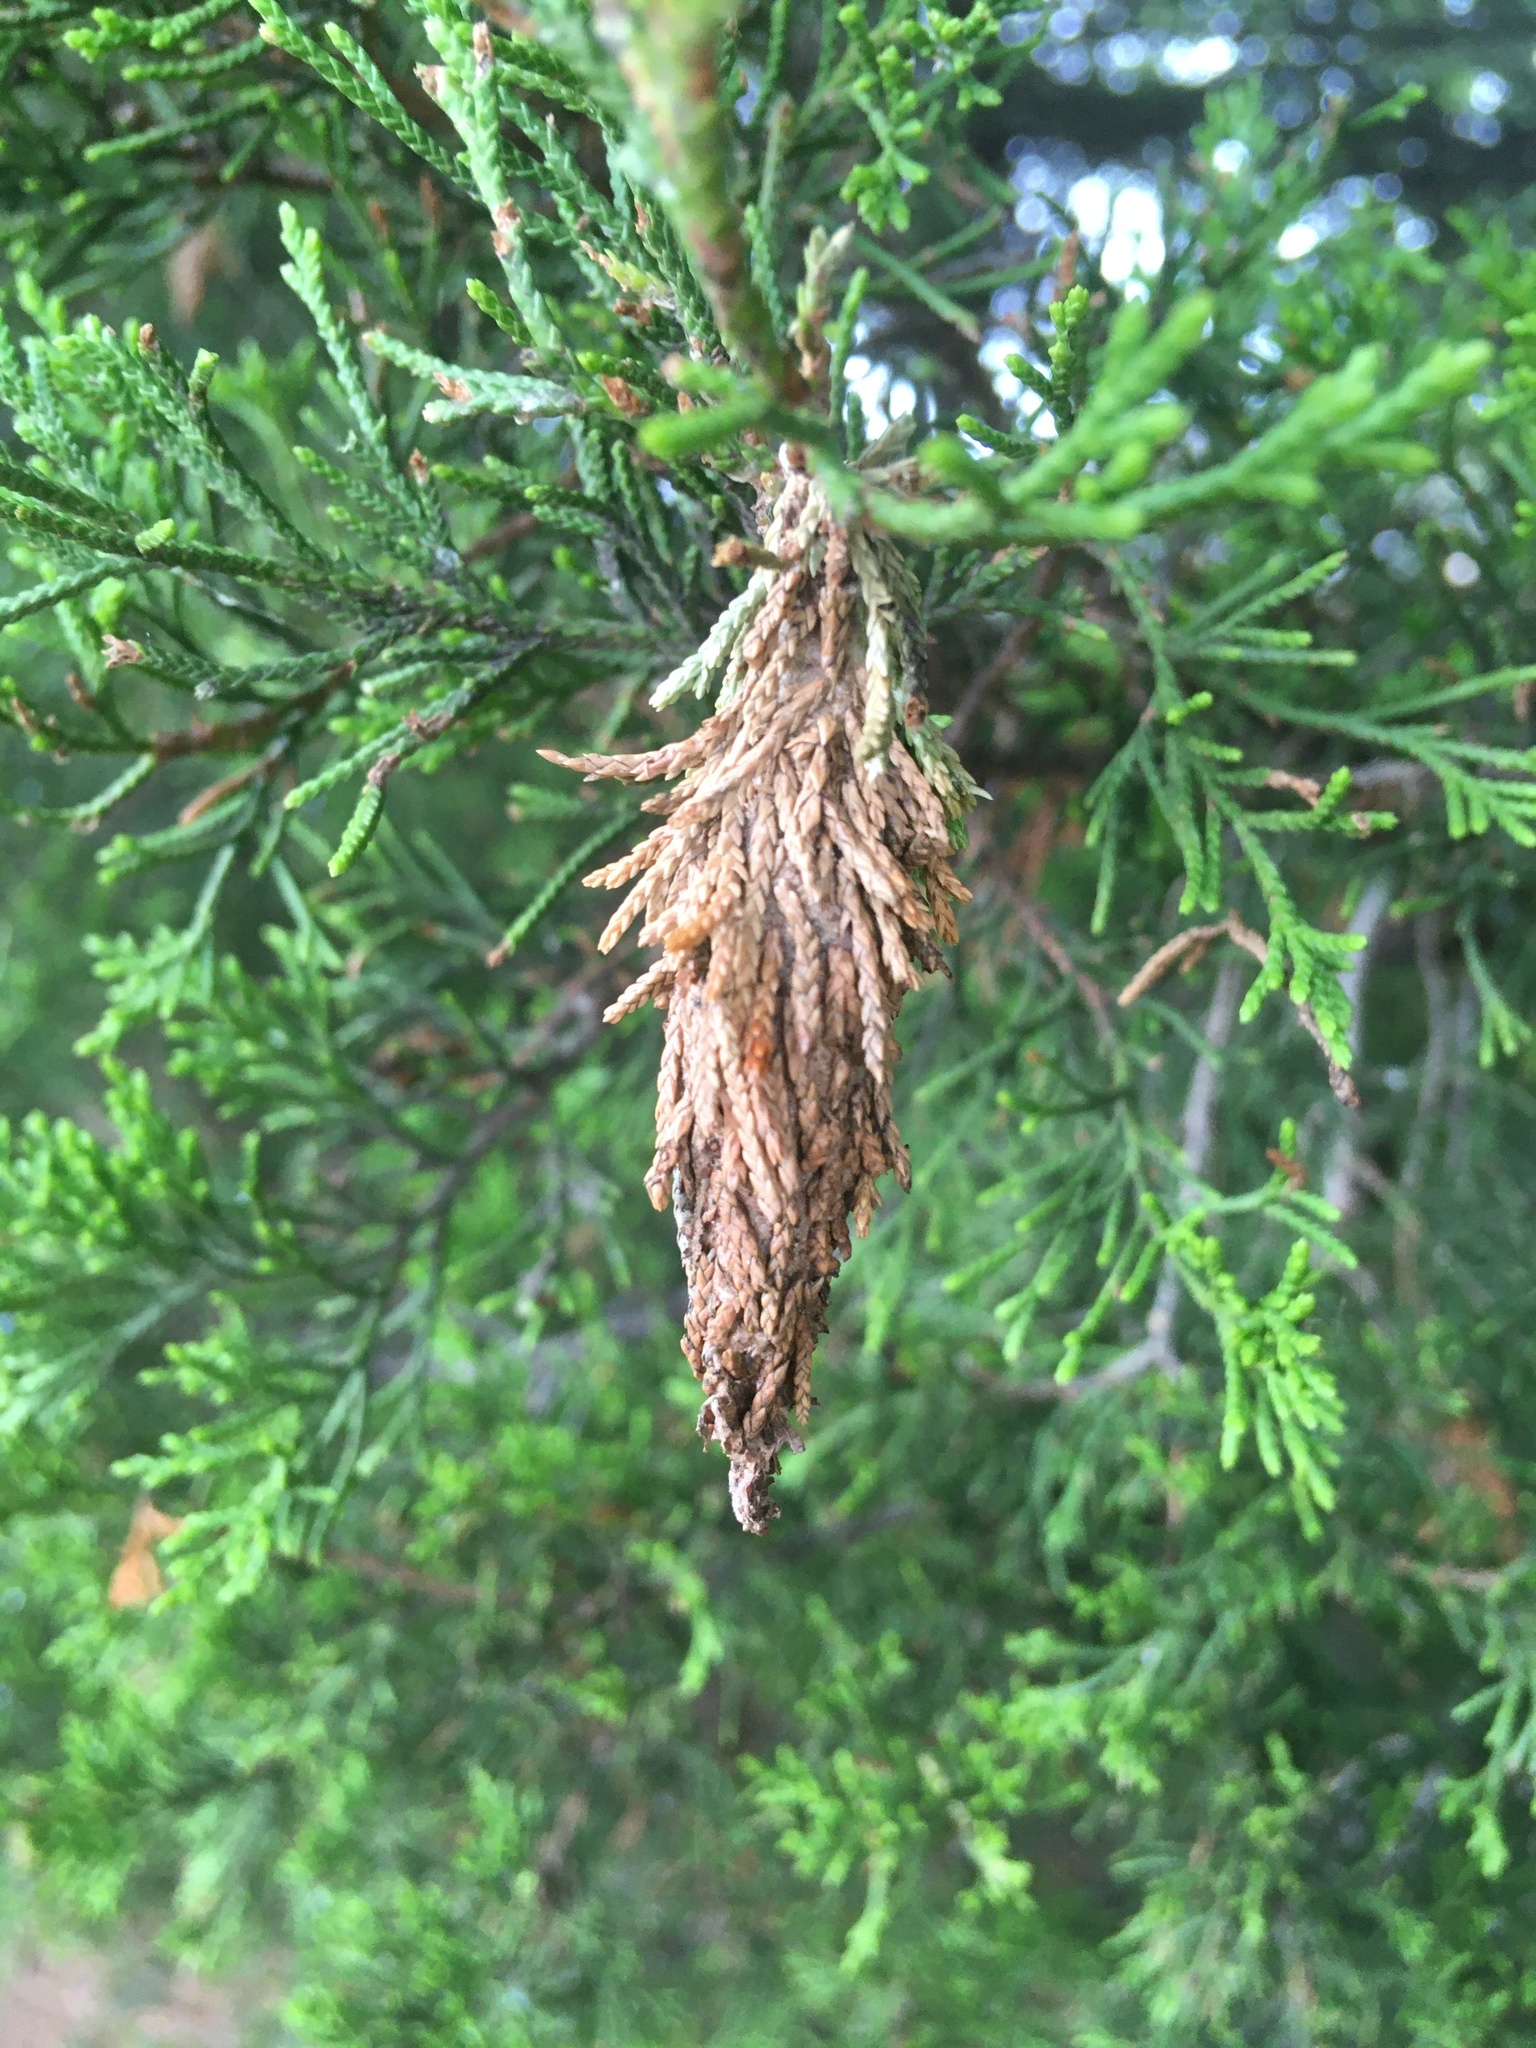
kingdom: Animalia
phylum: Arthropoda
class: Insecta
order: Lepidoptera
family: Psychidae
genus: Thyridopteryx
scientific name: Thyridopteryx ephemeraeformis
